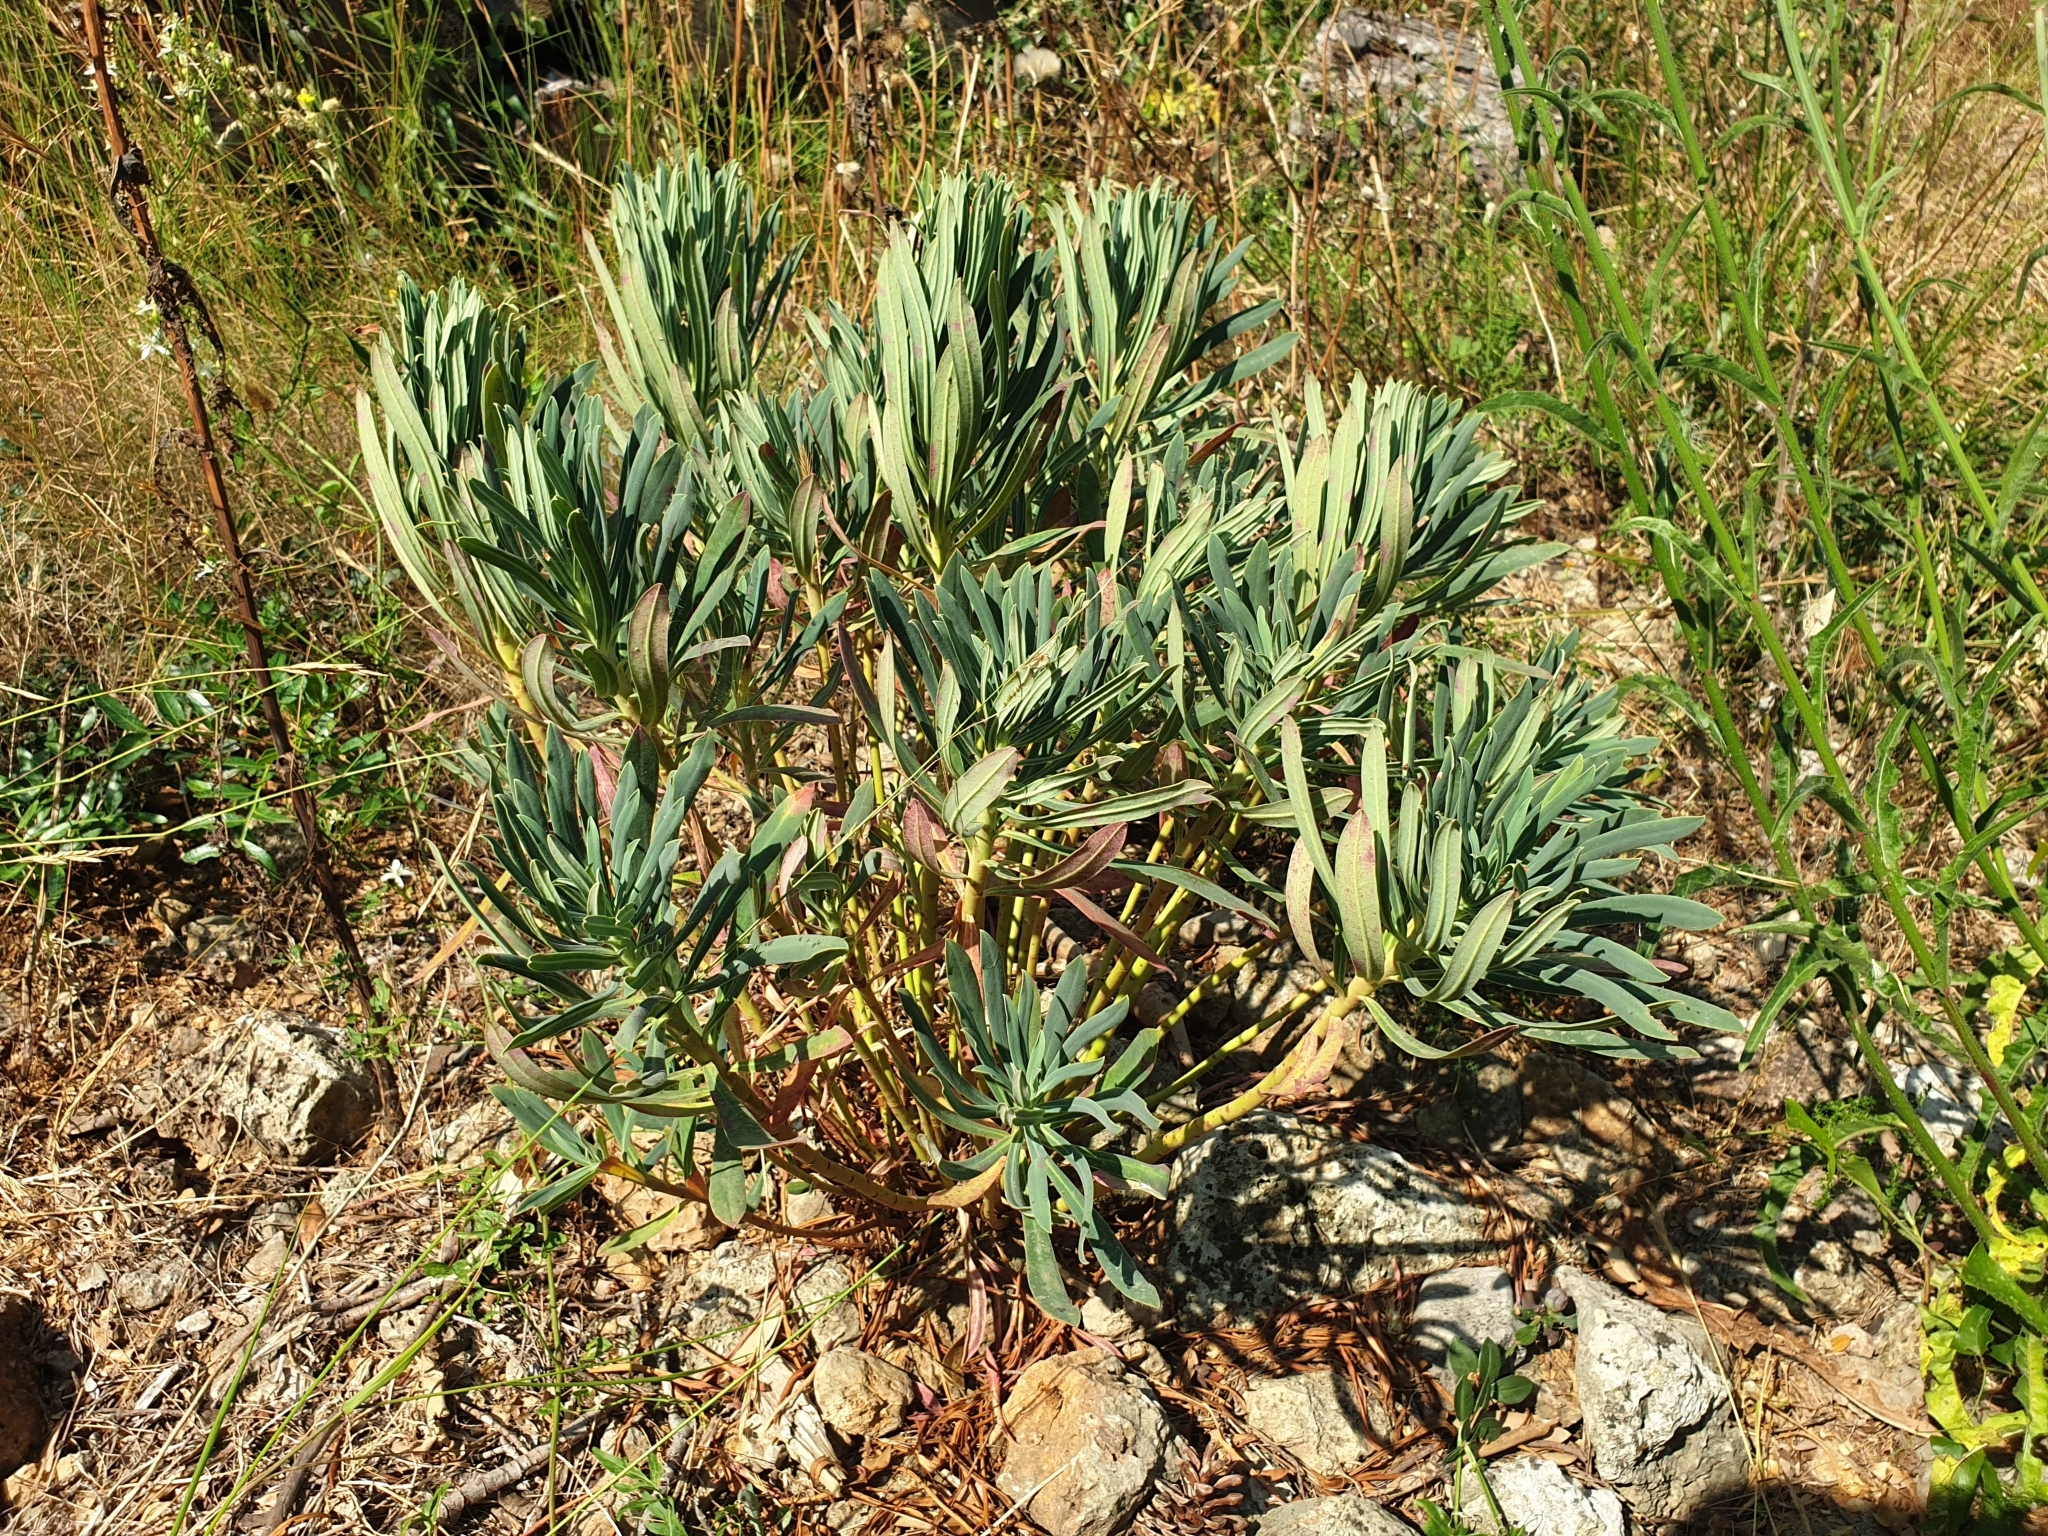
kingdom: Plantae
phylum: Tracheophyta
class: Magnoliopsida
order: Malpighiales
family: Euphorbiaceae
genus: Euphorbia
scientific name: Euphorbia characias
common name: Mediterranean spurge
